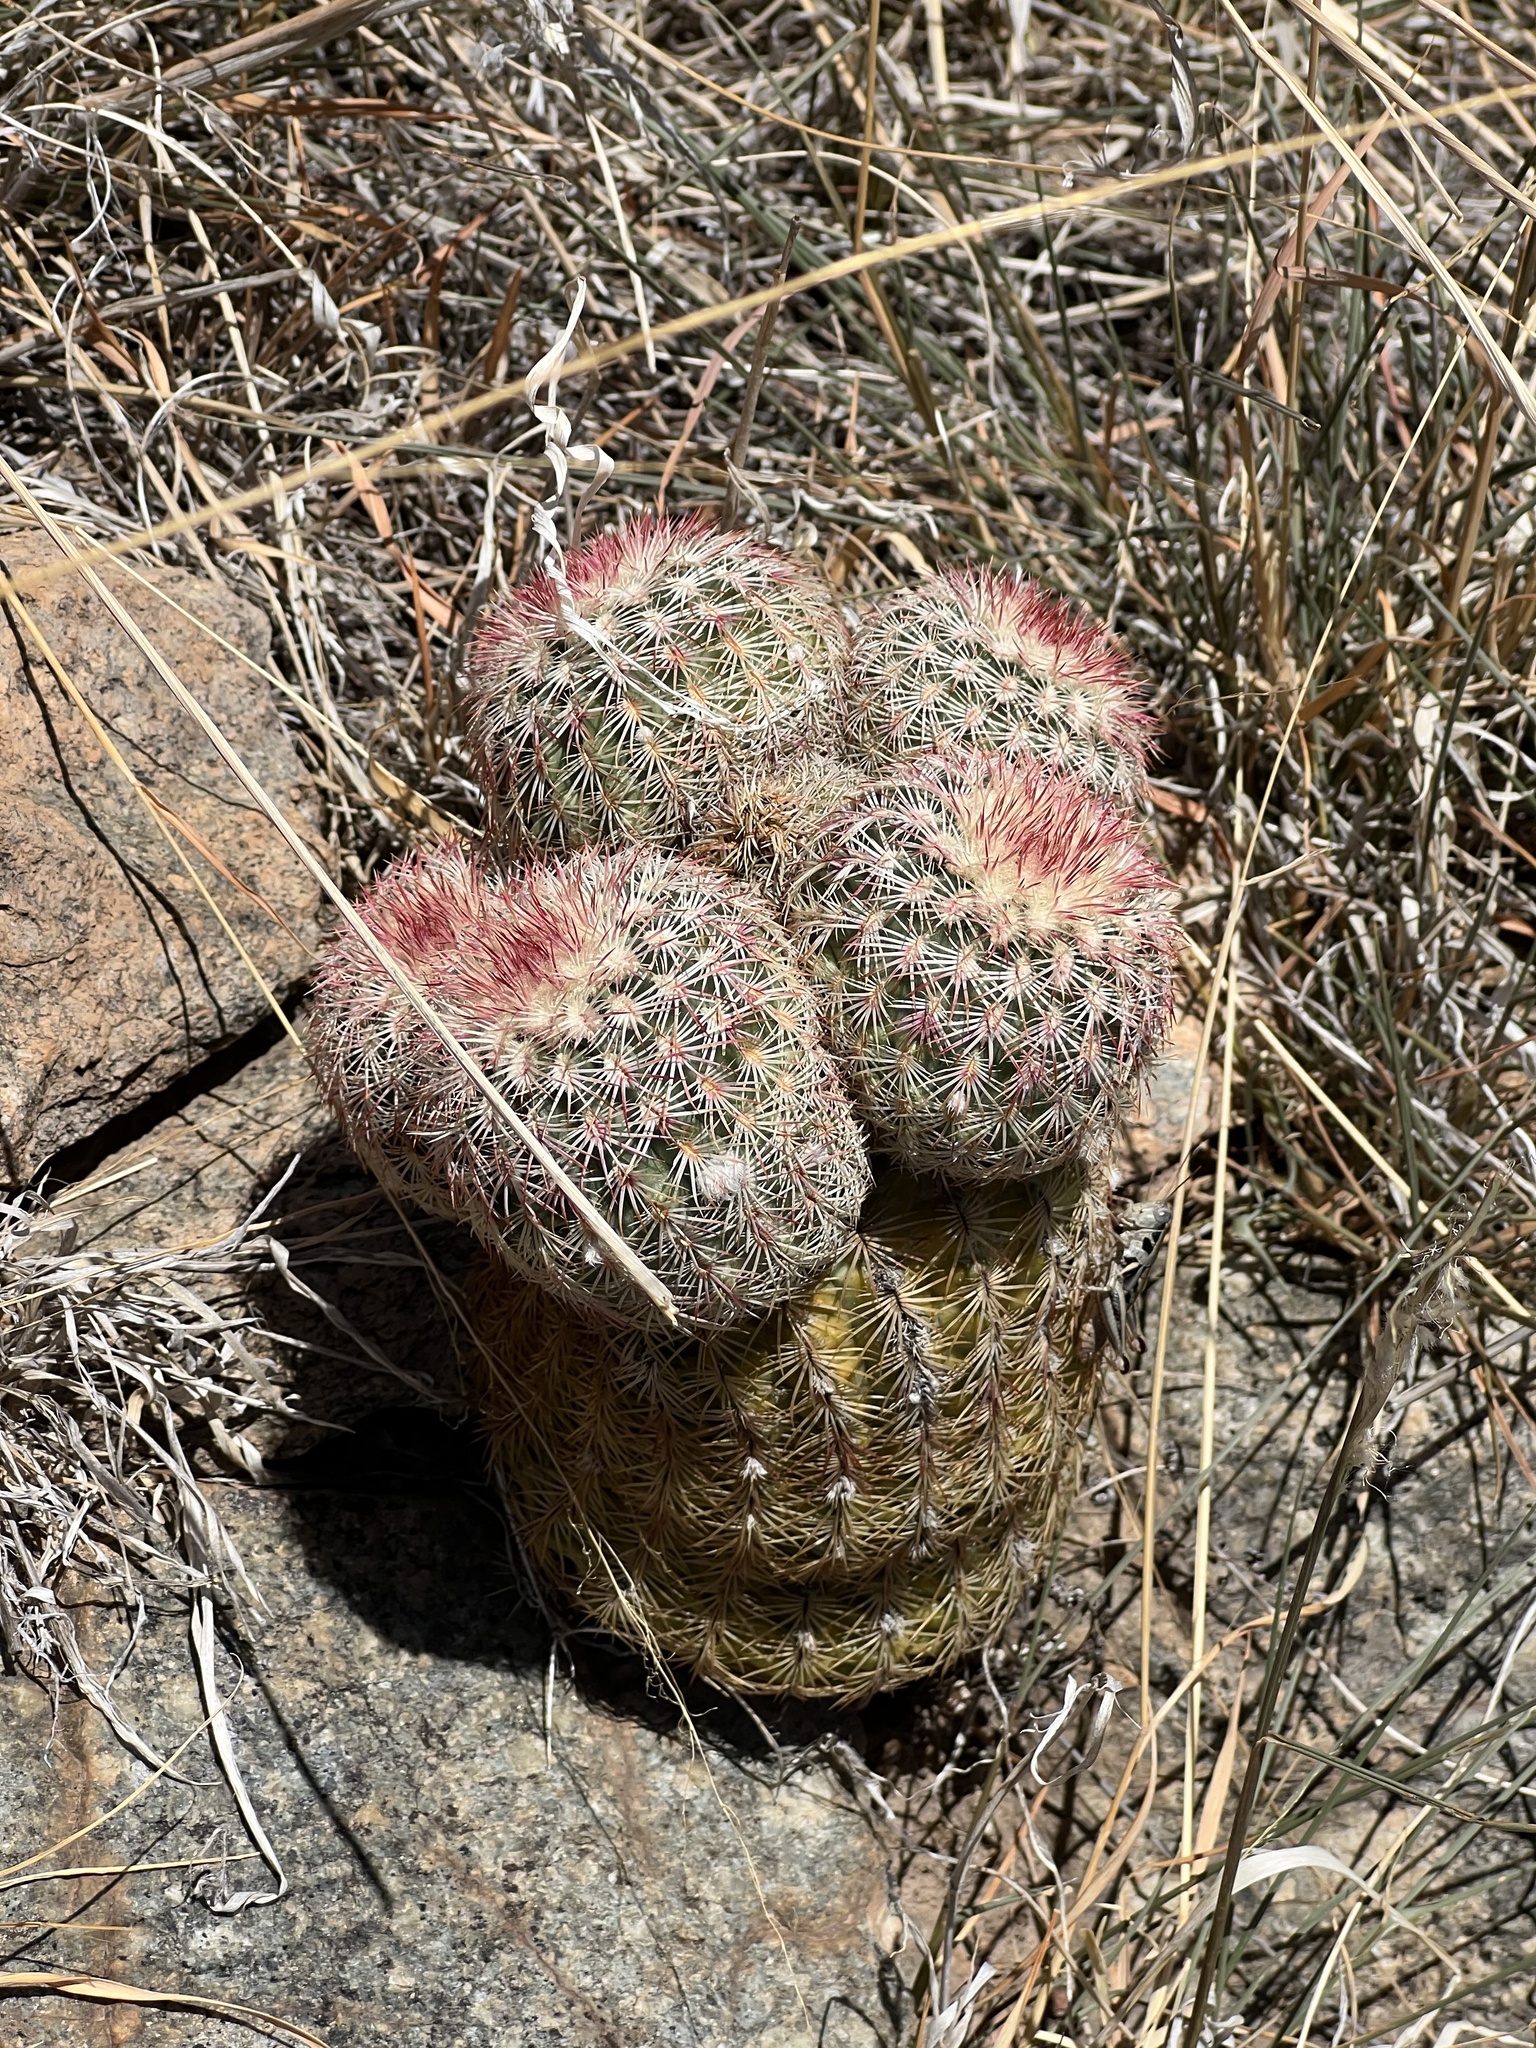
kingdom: Plantae
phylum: Tracheophyta
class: Magnoliopsida
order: Caryophyllales
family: Cactaceae
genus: Echinocereus
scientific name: Echinocereus rigidissimus
